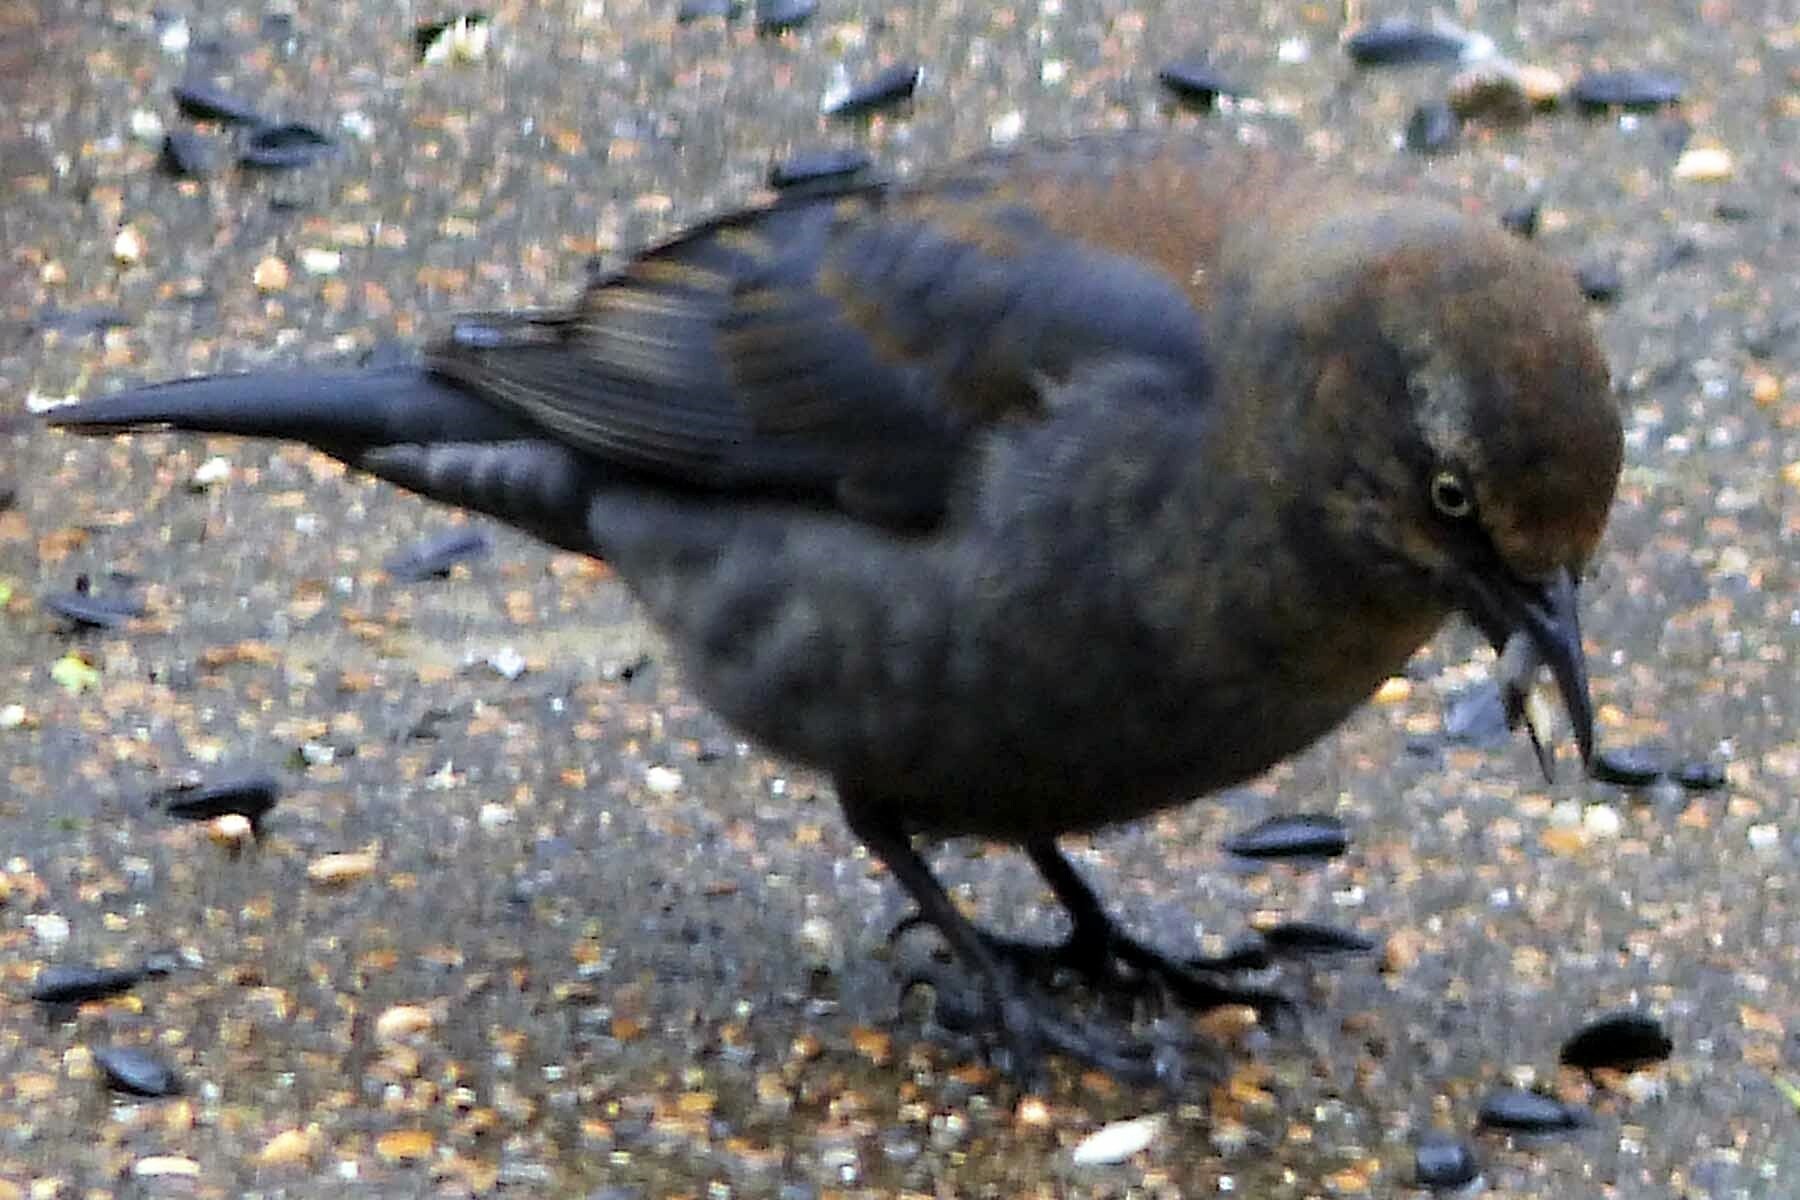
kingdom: Animalia
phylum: Chordata
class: Aves
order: Passeriformes
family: Icteridae
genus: Euphagus
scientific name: Euphagus carolinus
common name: Rusty blackbird
